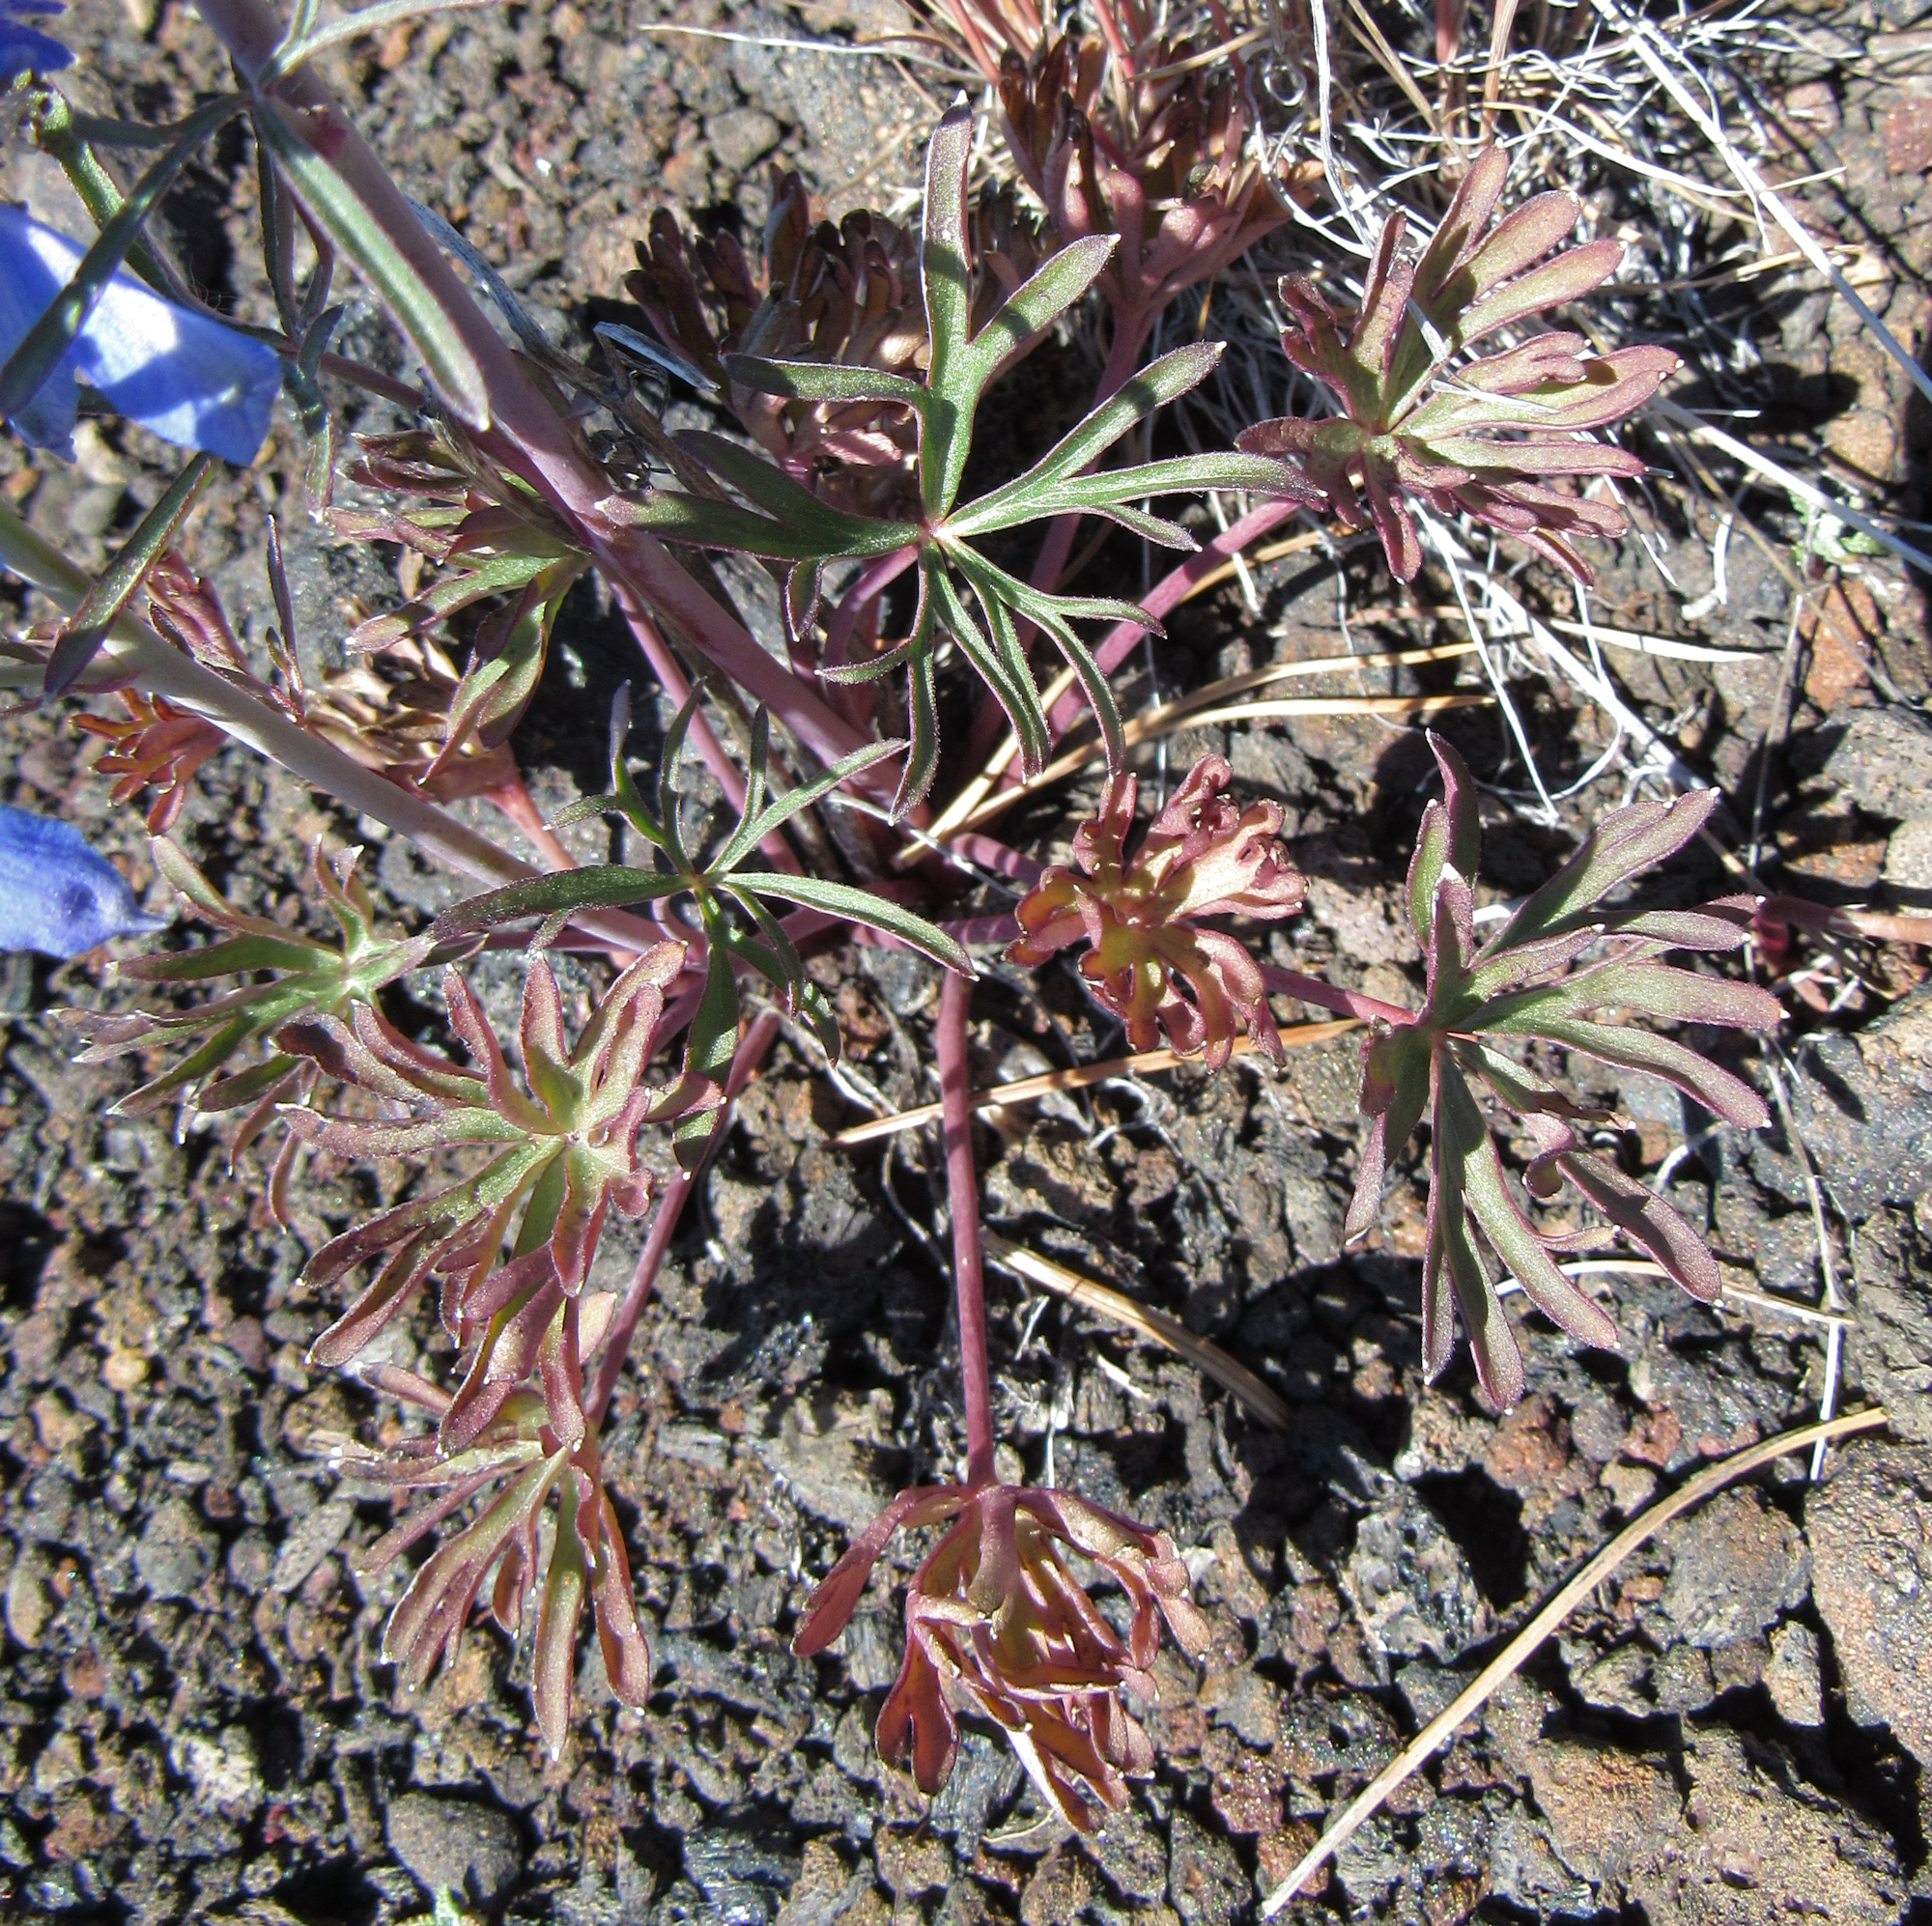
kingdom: Plantae
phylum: Tracheophyta
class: Magnoliopsida
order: Ranunculales
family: Ranunculaceae
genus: Delphinium
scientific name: Delphinium nuttallianum
